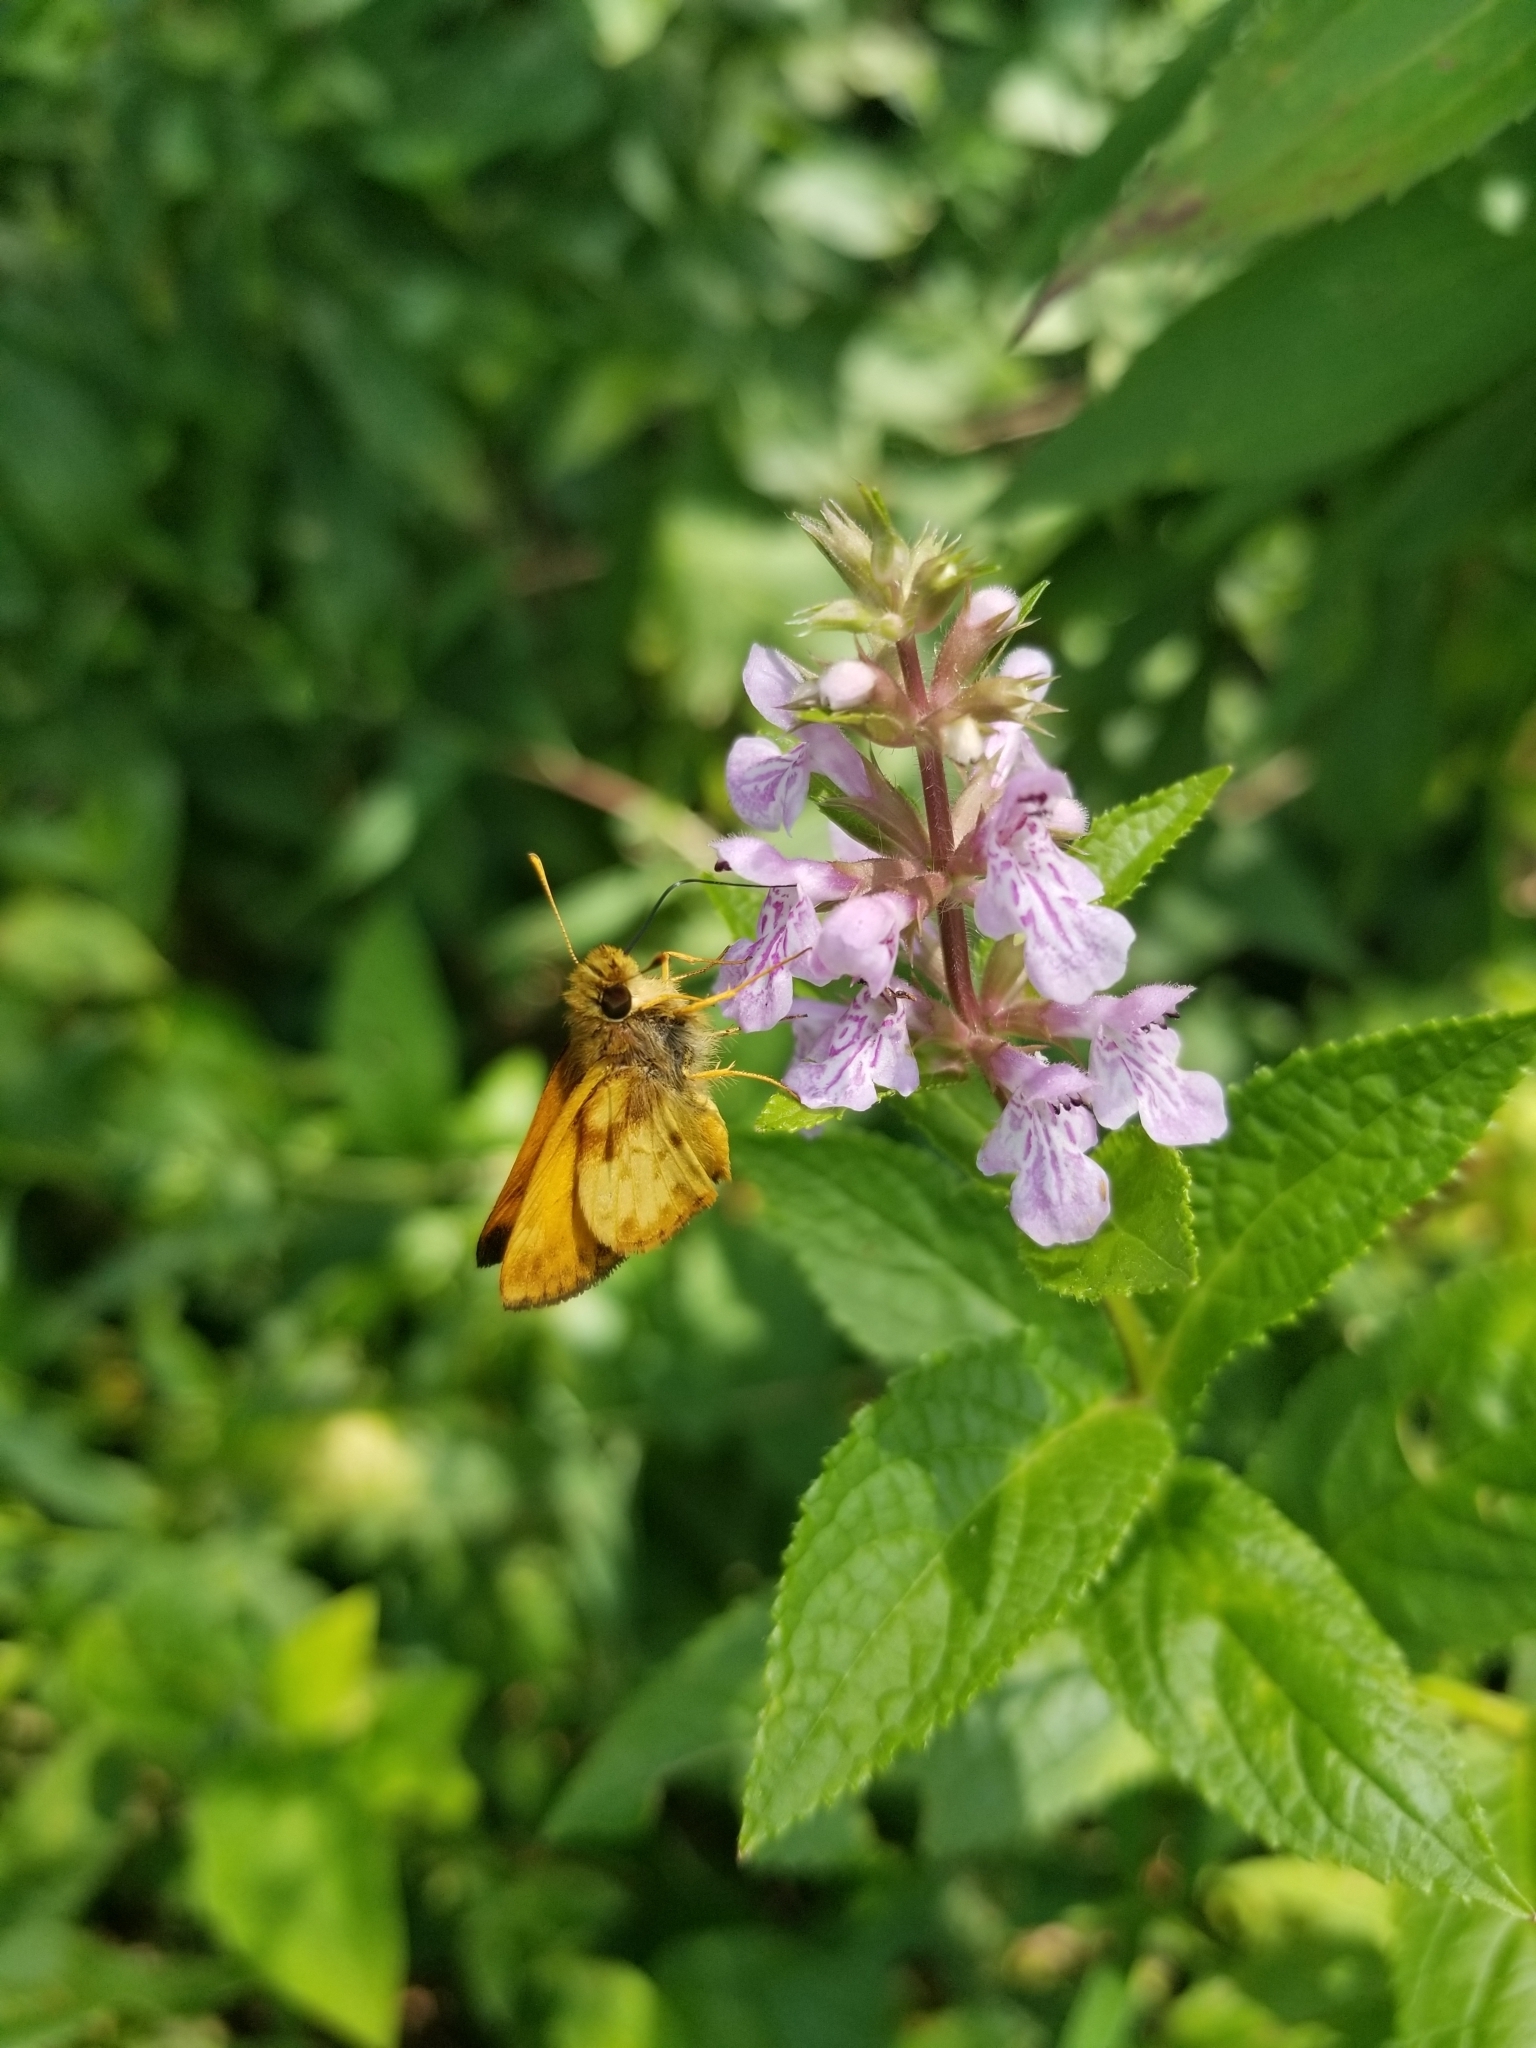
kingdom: Animalia
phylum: Arthropoda
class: Insecta
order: Lepidoptera
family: Hesperiidae
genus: Lon
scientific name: Lon zabulon
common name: Zabulon skipper
